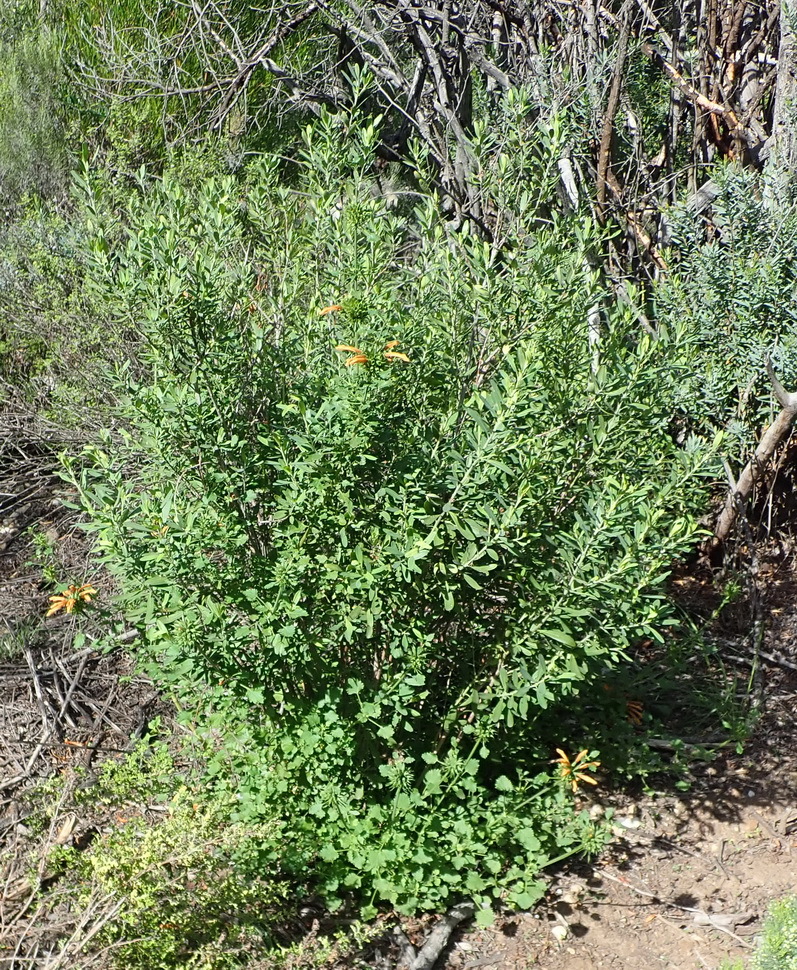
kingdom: Plantae
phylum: Tracheophyta
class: Magnoliopsida
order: Lamiales
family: Lamiaceae
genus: Leonotis
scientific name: Leonotis ocymifolia
